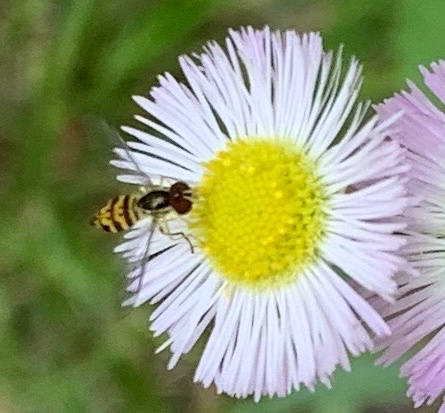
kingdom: Animalia
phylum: Arthropoda
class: Insecta
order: Diptera
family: Syrphidae
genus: Toxomerus
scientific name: Toxomerus geminatus
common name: Eastern calligrapher
